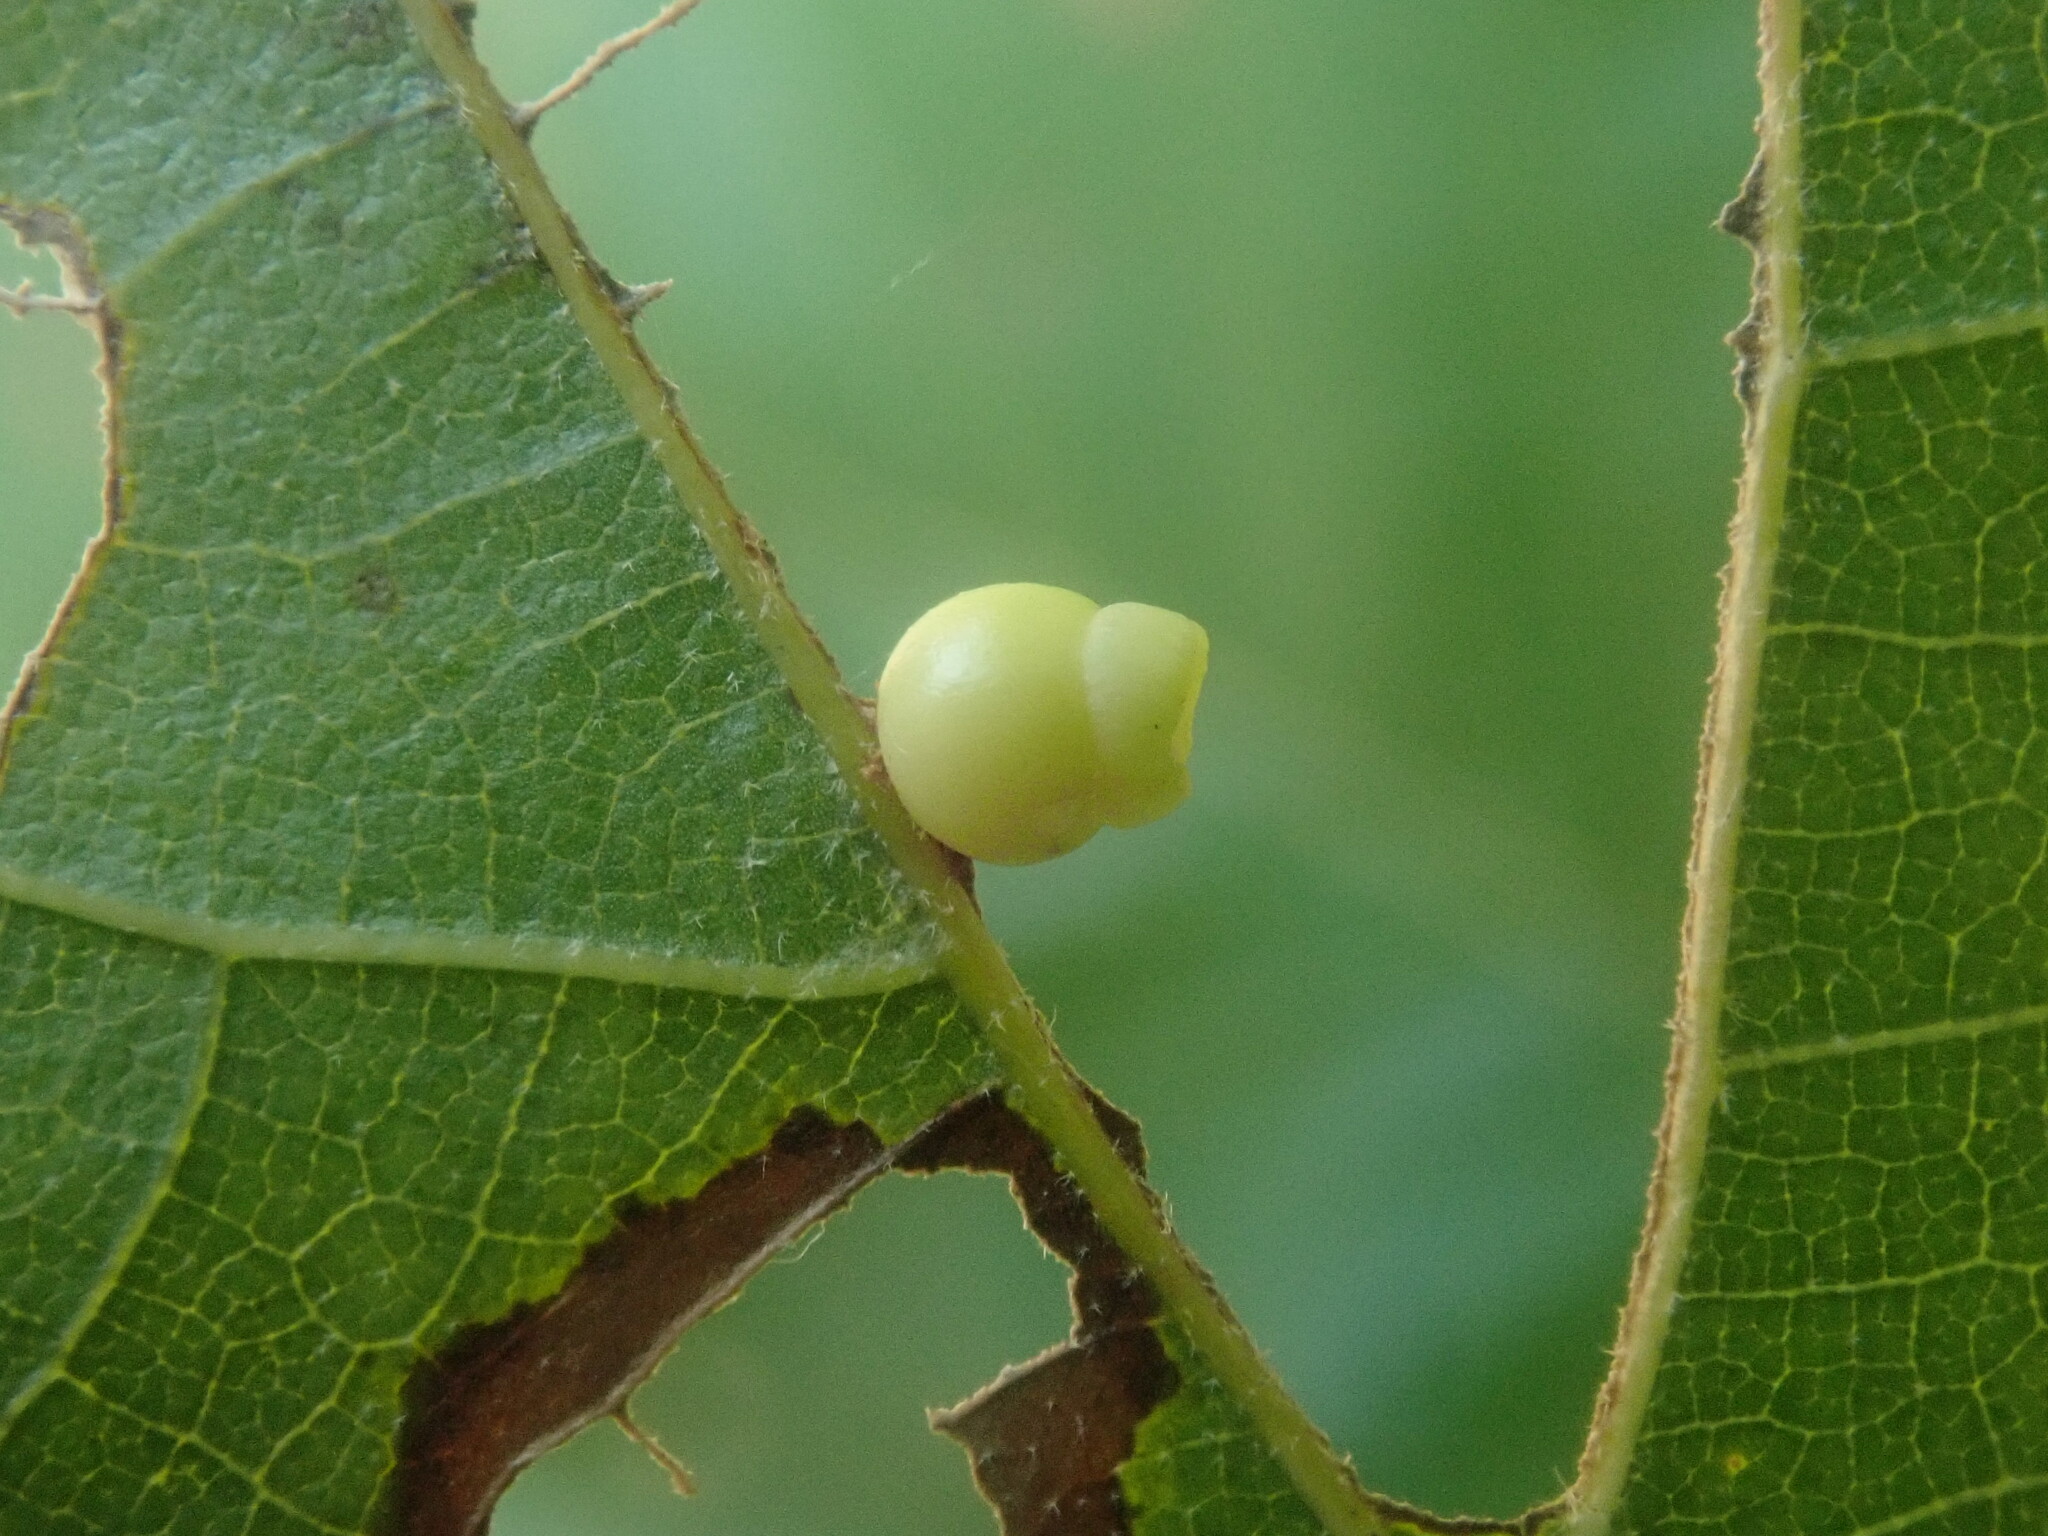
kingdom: Animalia
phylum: Arthropoda
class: Insecta
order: Hymenoptera
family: Cynipidae
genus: Kokkocynips
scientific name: Kokkocynips rileyi
